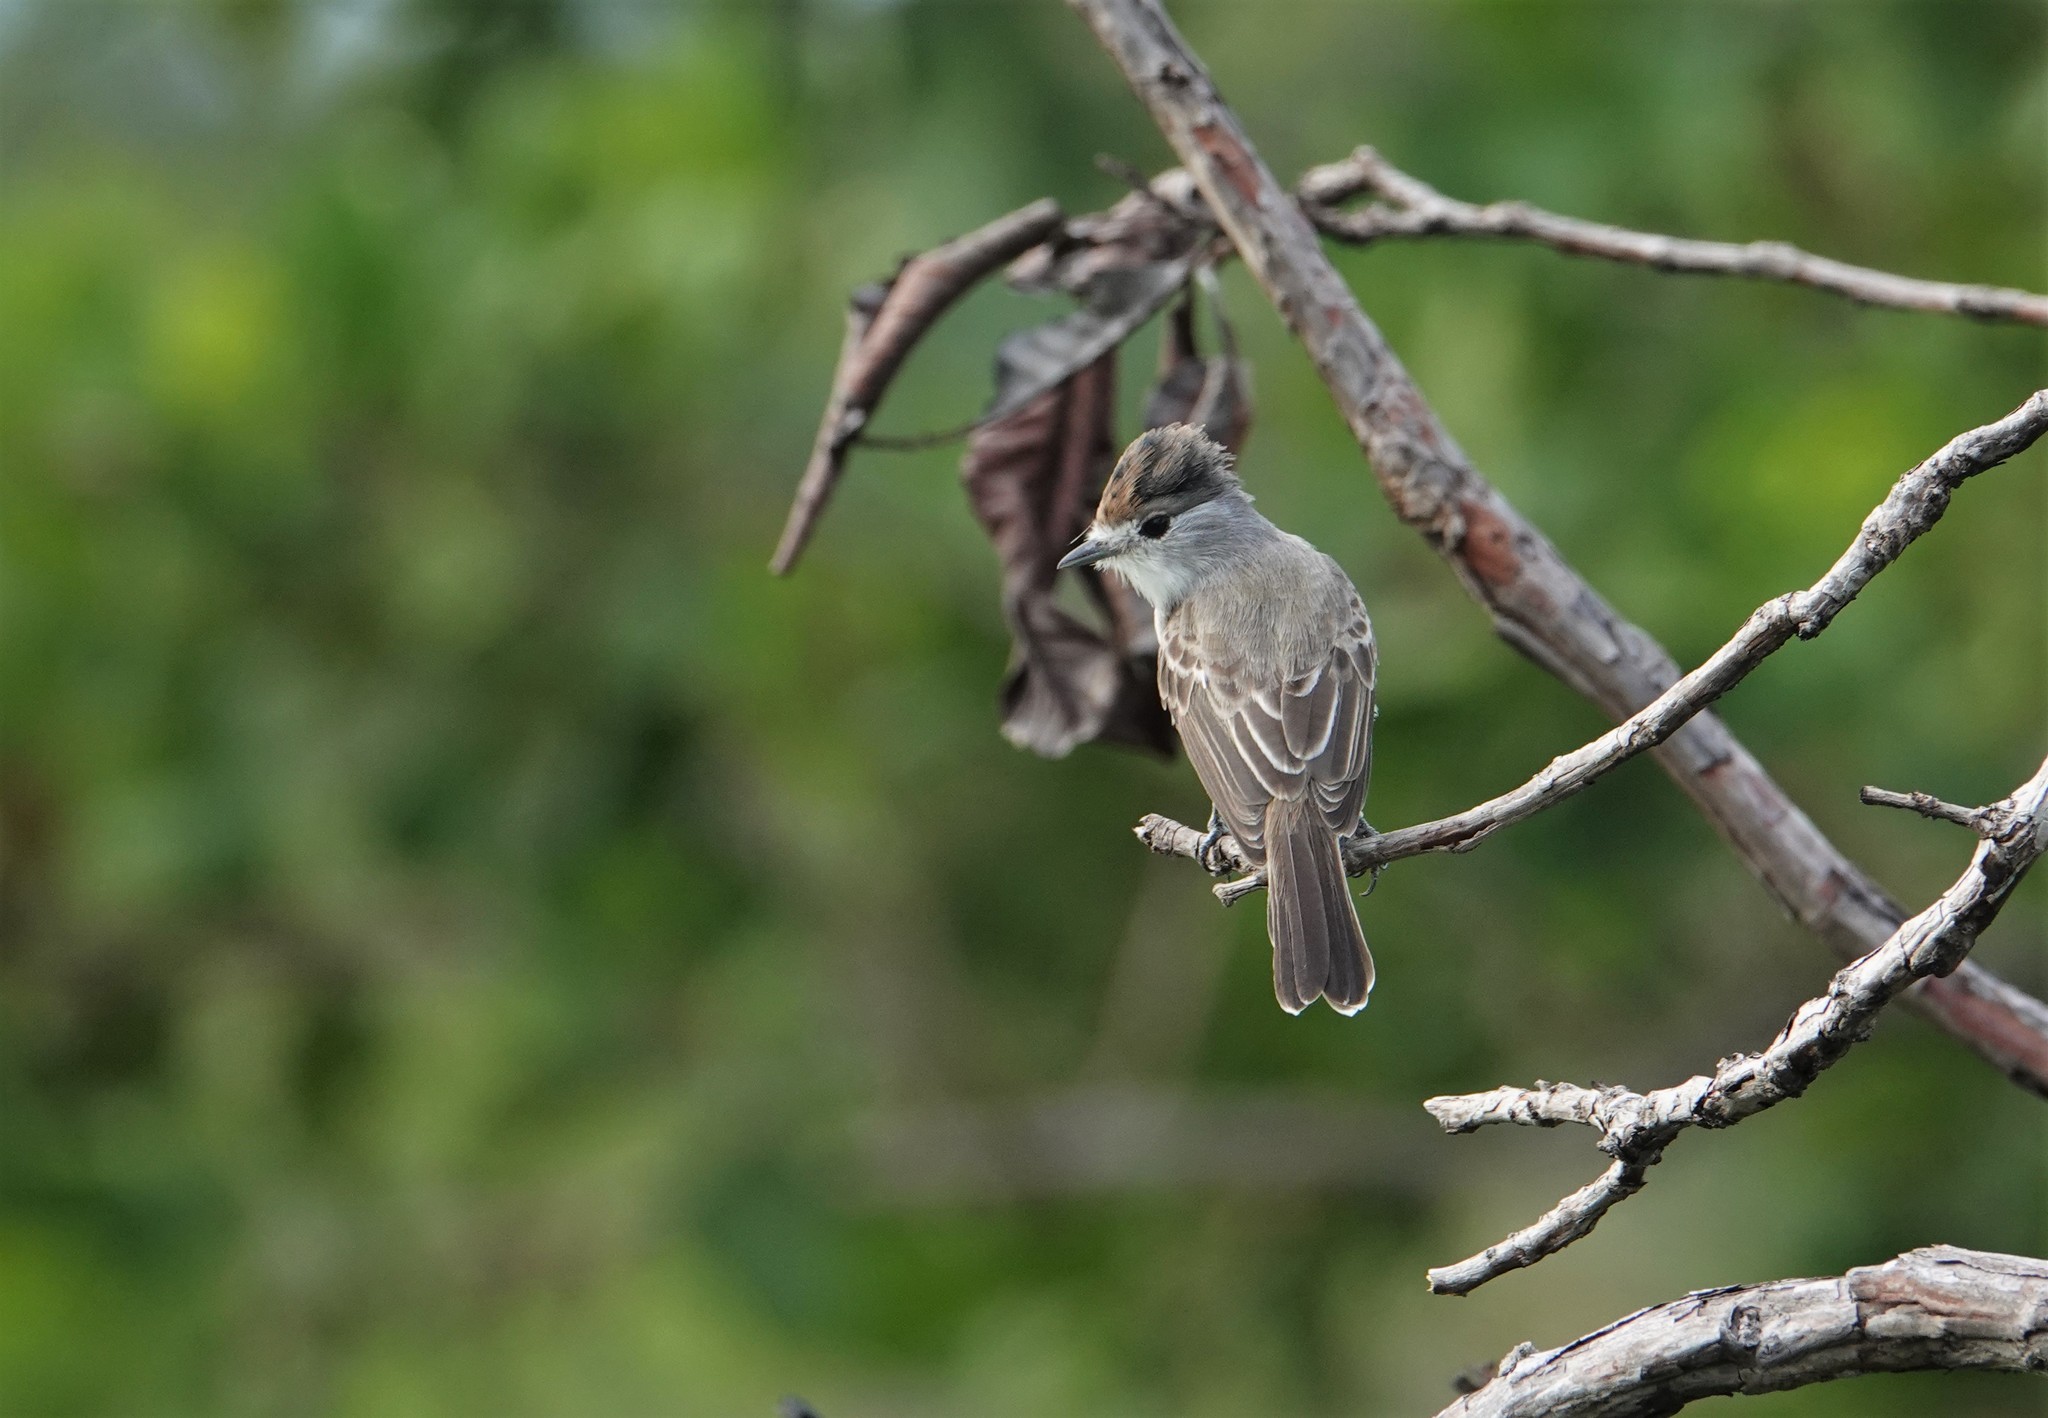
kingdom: Animalia
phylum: Chordata
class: Aves
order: Passeriformes
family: Cotingidae
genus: Xenopsaris
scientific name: Xenopsaris albinucha
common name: White-naped xenopsaris
